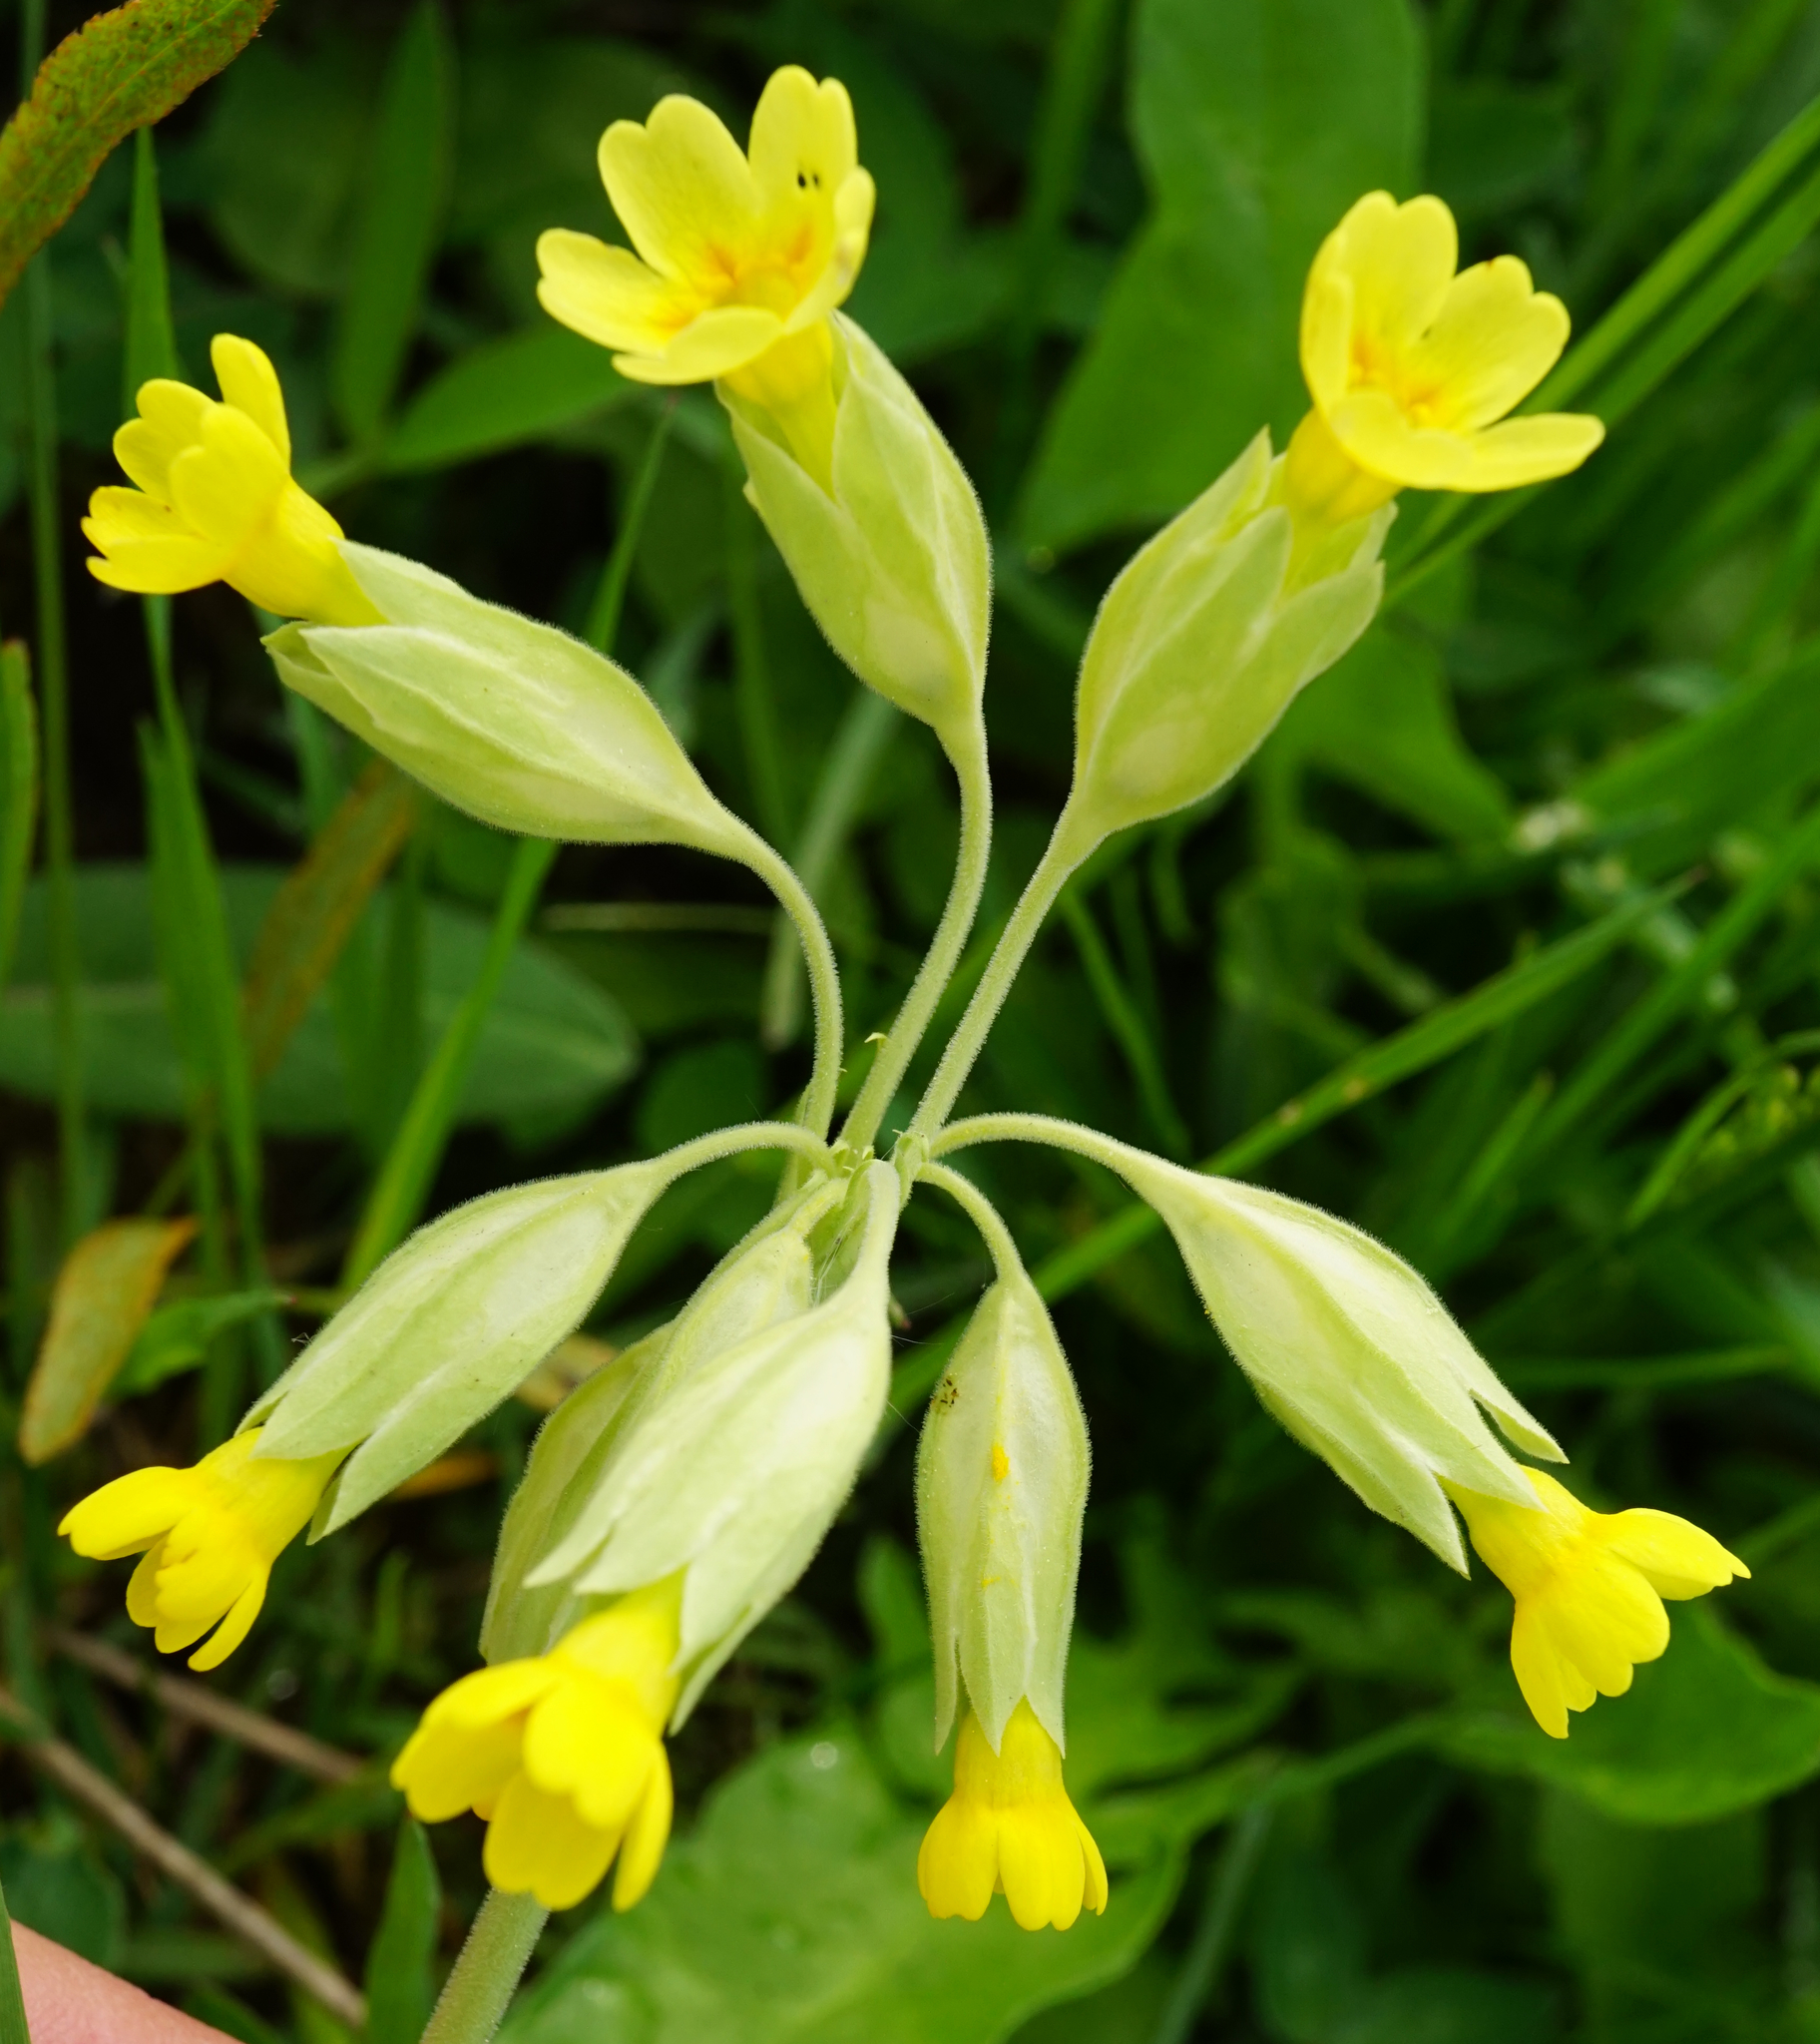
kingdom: Plantae
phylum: Tracheophyta
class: Magnoliopsida
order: Ericales
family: Primulaceae
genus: Primula
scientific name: Primula veris
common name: Cowslip
